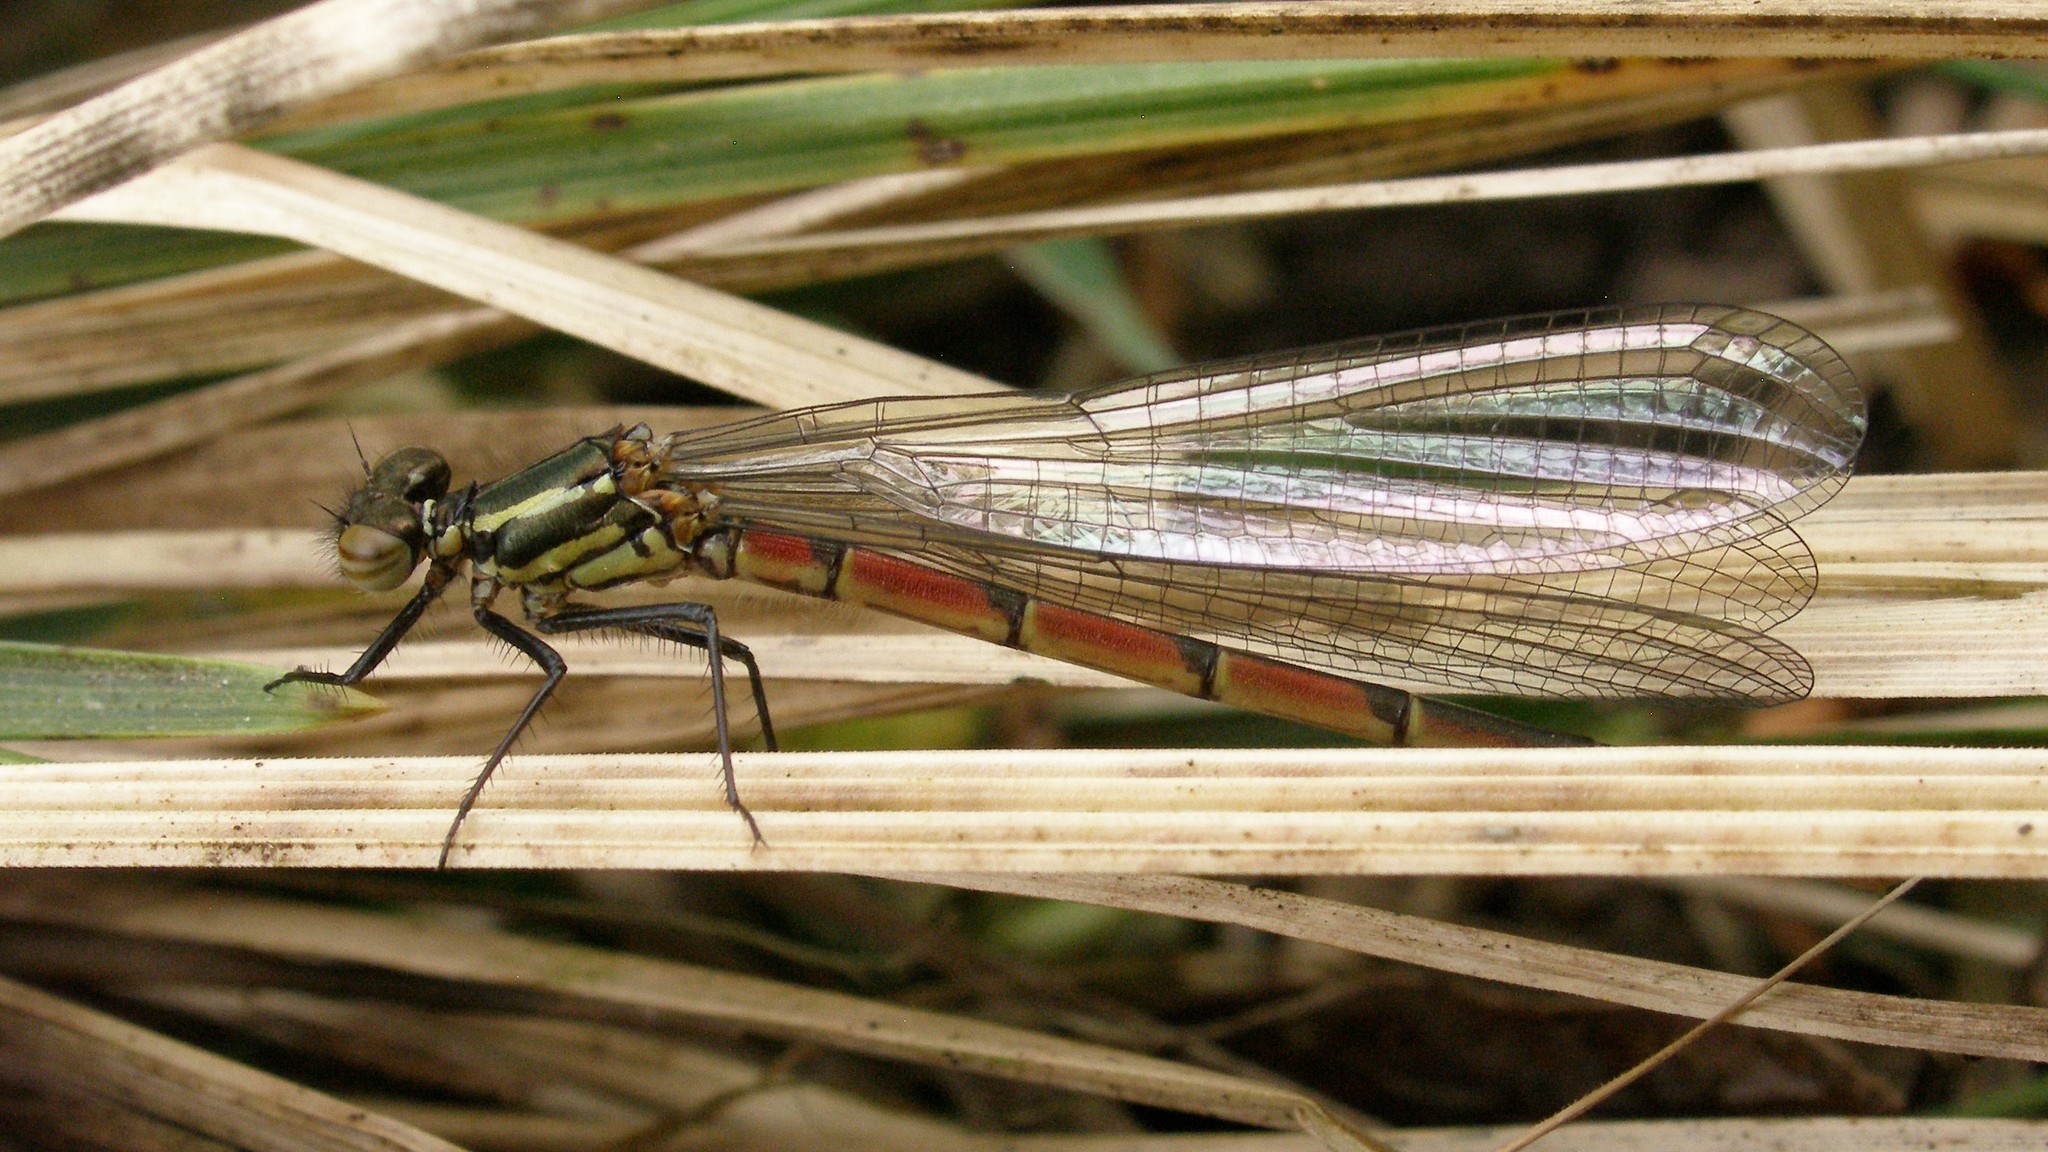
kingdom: Animalia
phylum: Arthropoda
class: Insecta
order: Odonata
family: Coenagrionidae
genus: Pyrrhosoma
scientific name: Pyrrhosoma nymphula
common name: Large red damsel
